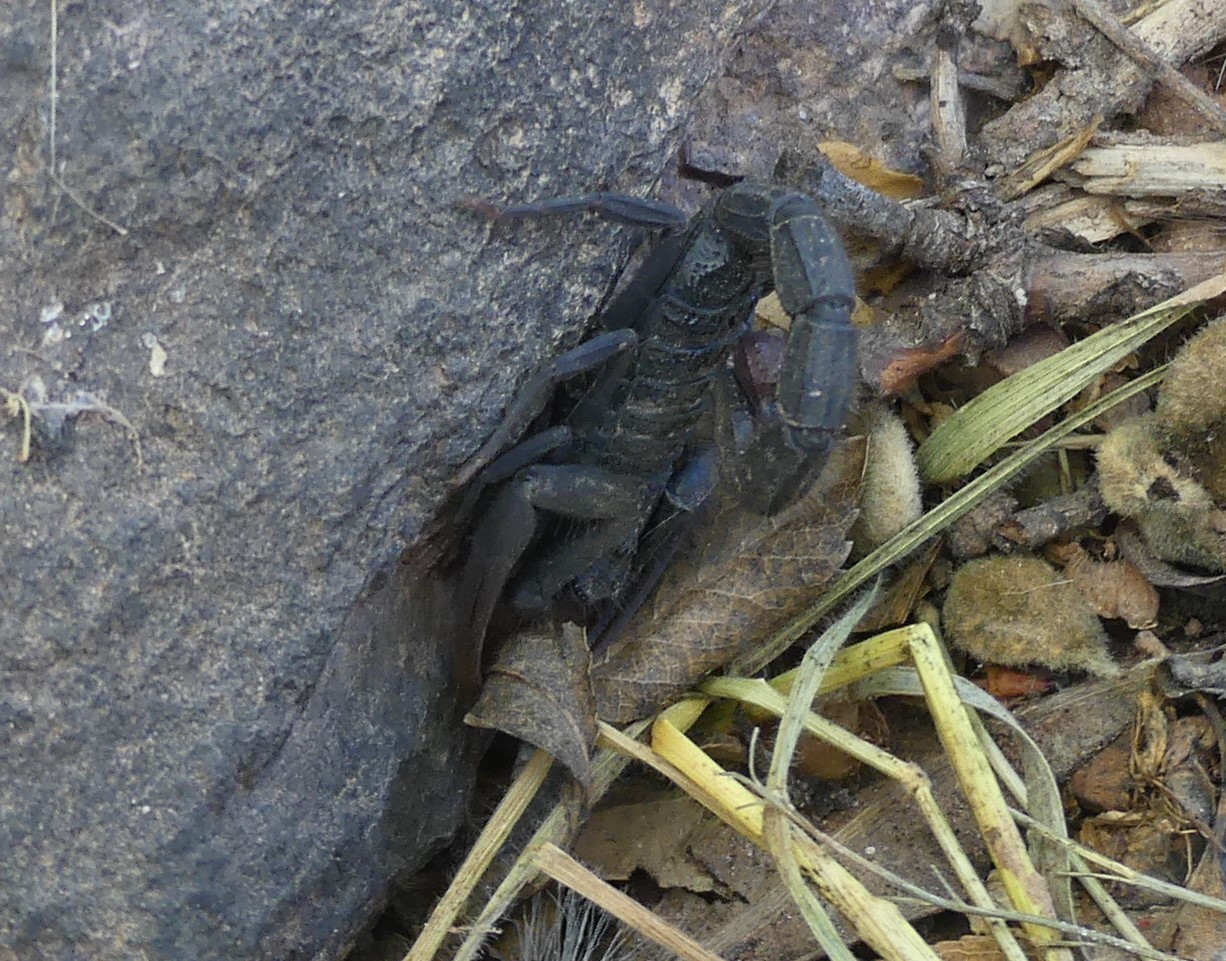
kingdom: Animalia
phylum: Arthropoda
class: Arachnida
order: Scorpiones
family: Buthidae
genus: Hottentotta
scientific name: Hottentotta gentili
